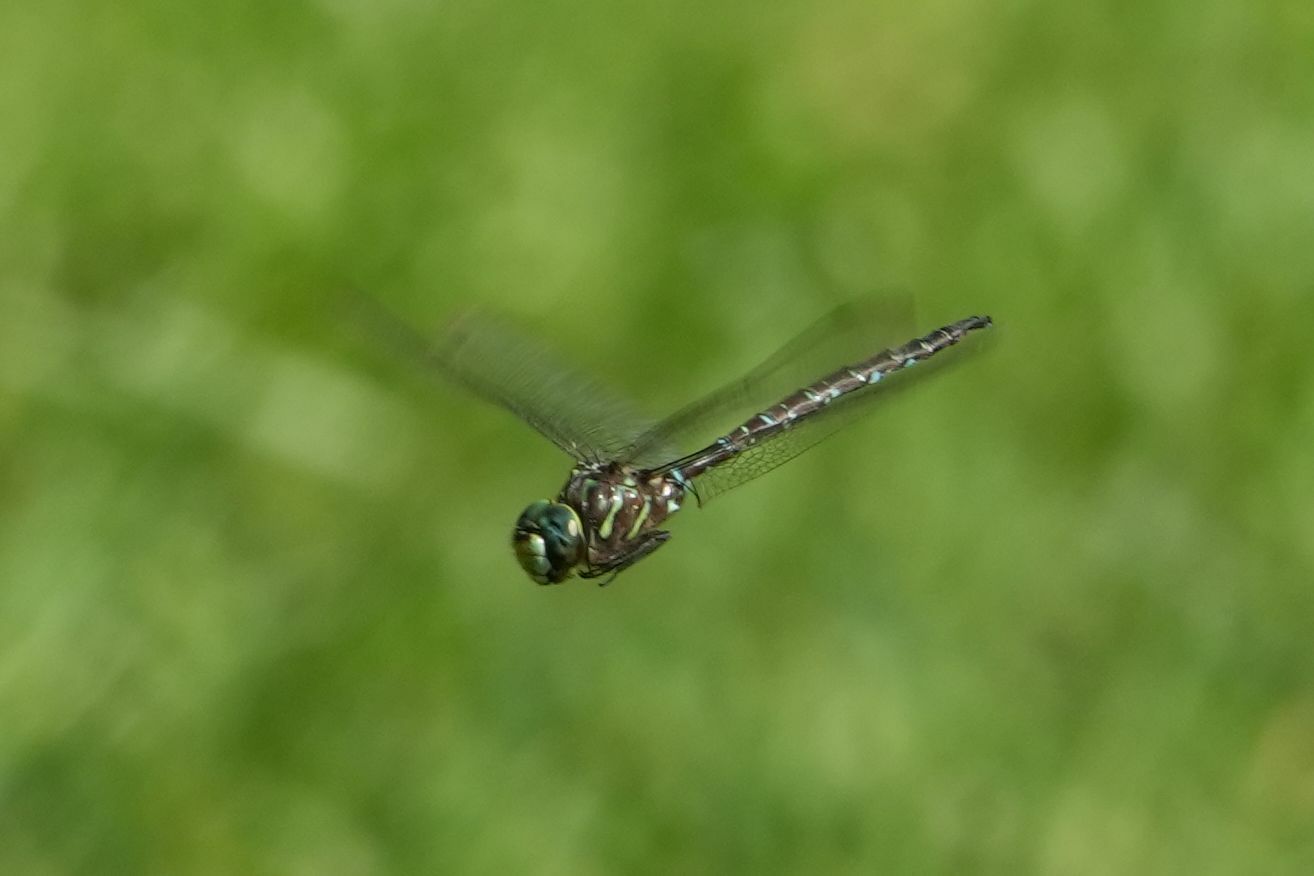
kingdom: Animalia
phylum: Arthropoda
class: Insecta
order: Odonata
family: Aeshnidae
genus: Aeshna
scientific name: Aeshna umbrosa
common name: Shadow darner
